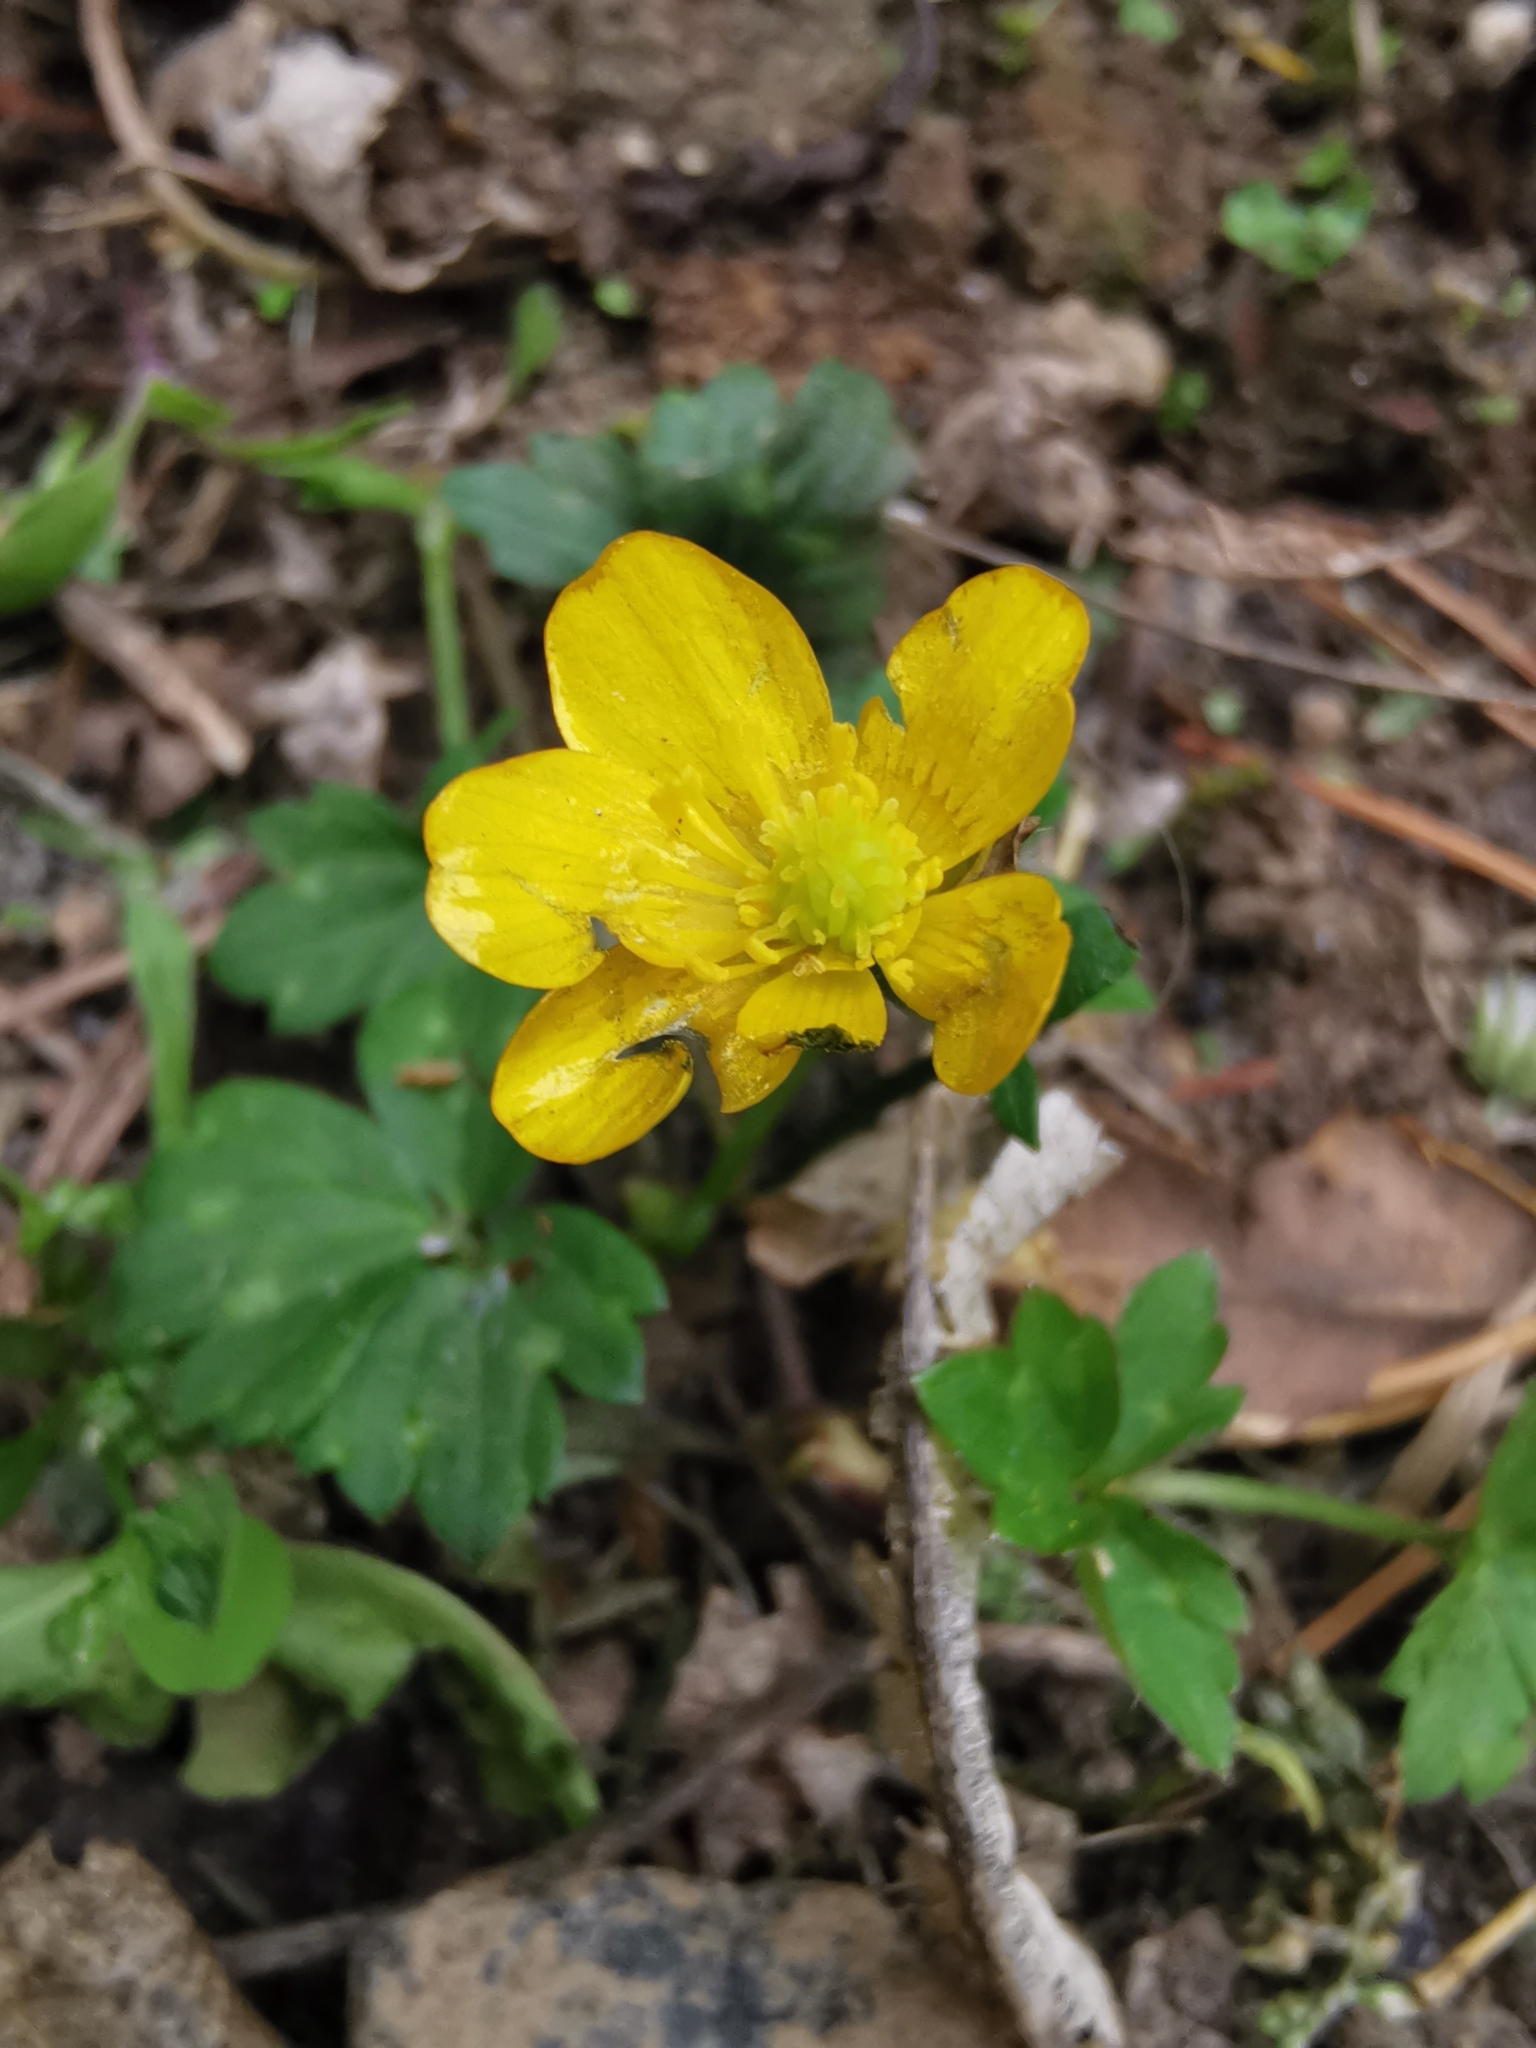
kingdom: Plantae
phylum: Tracheophyta
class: Magnoliopsida
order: Ranunculales
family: Ranunculaceae
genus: Ranunculus
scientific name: Ranunculus repens
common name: Creeping buttercup
